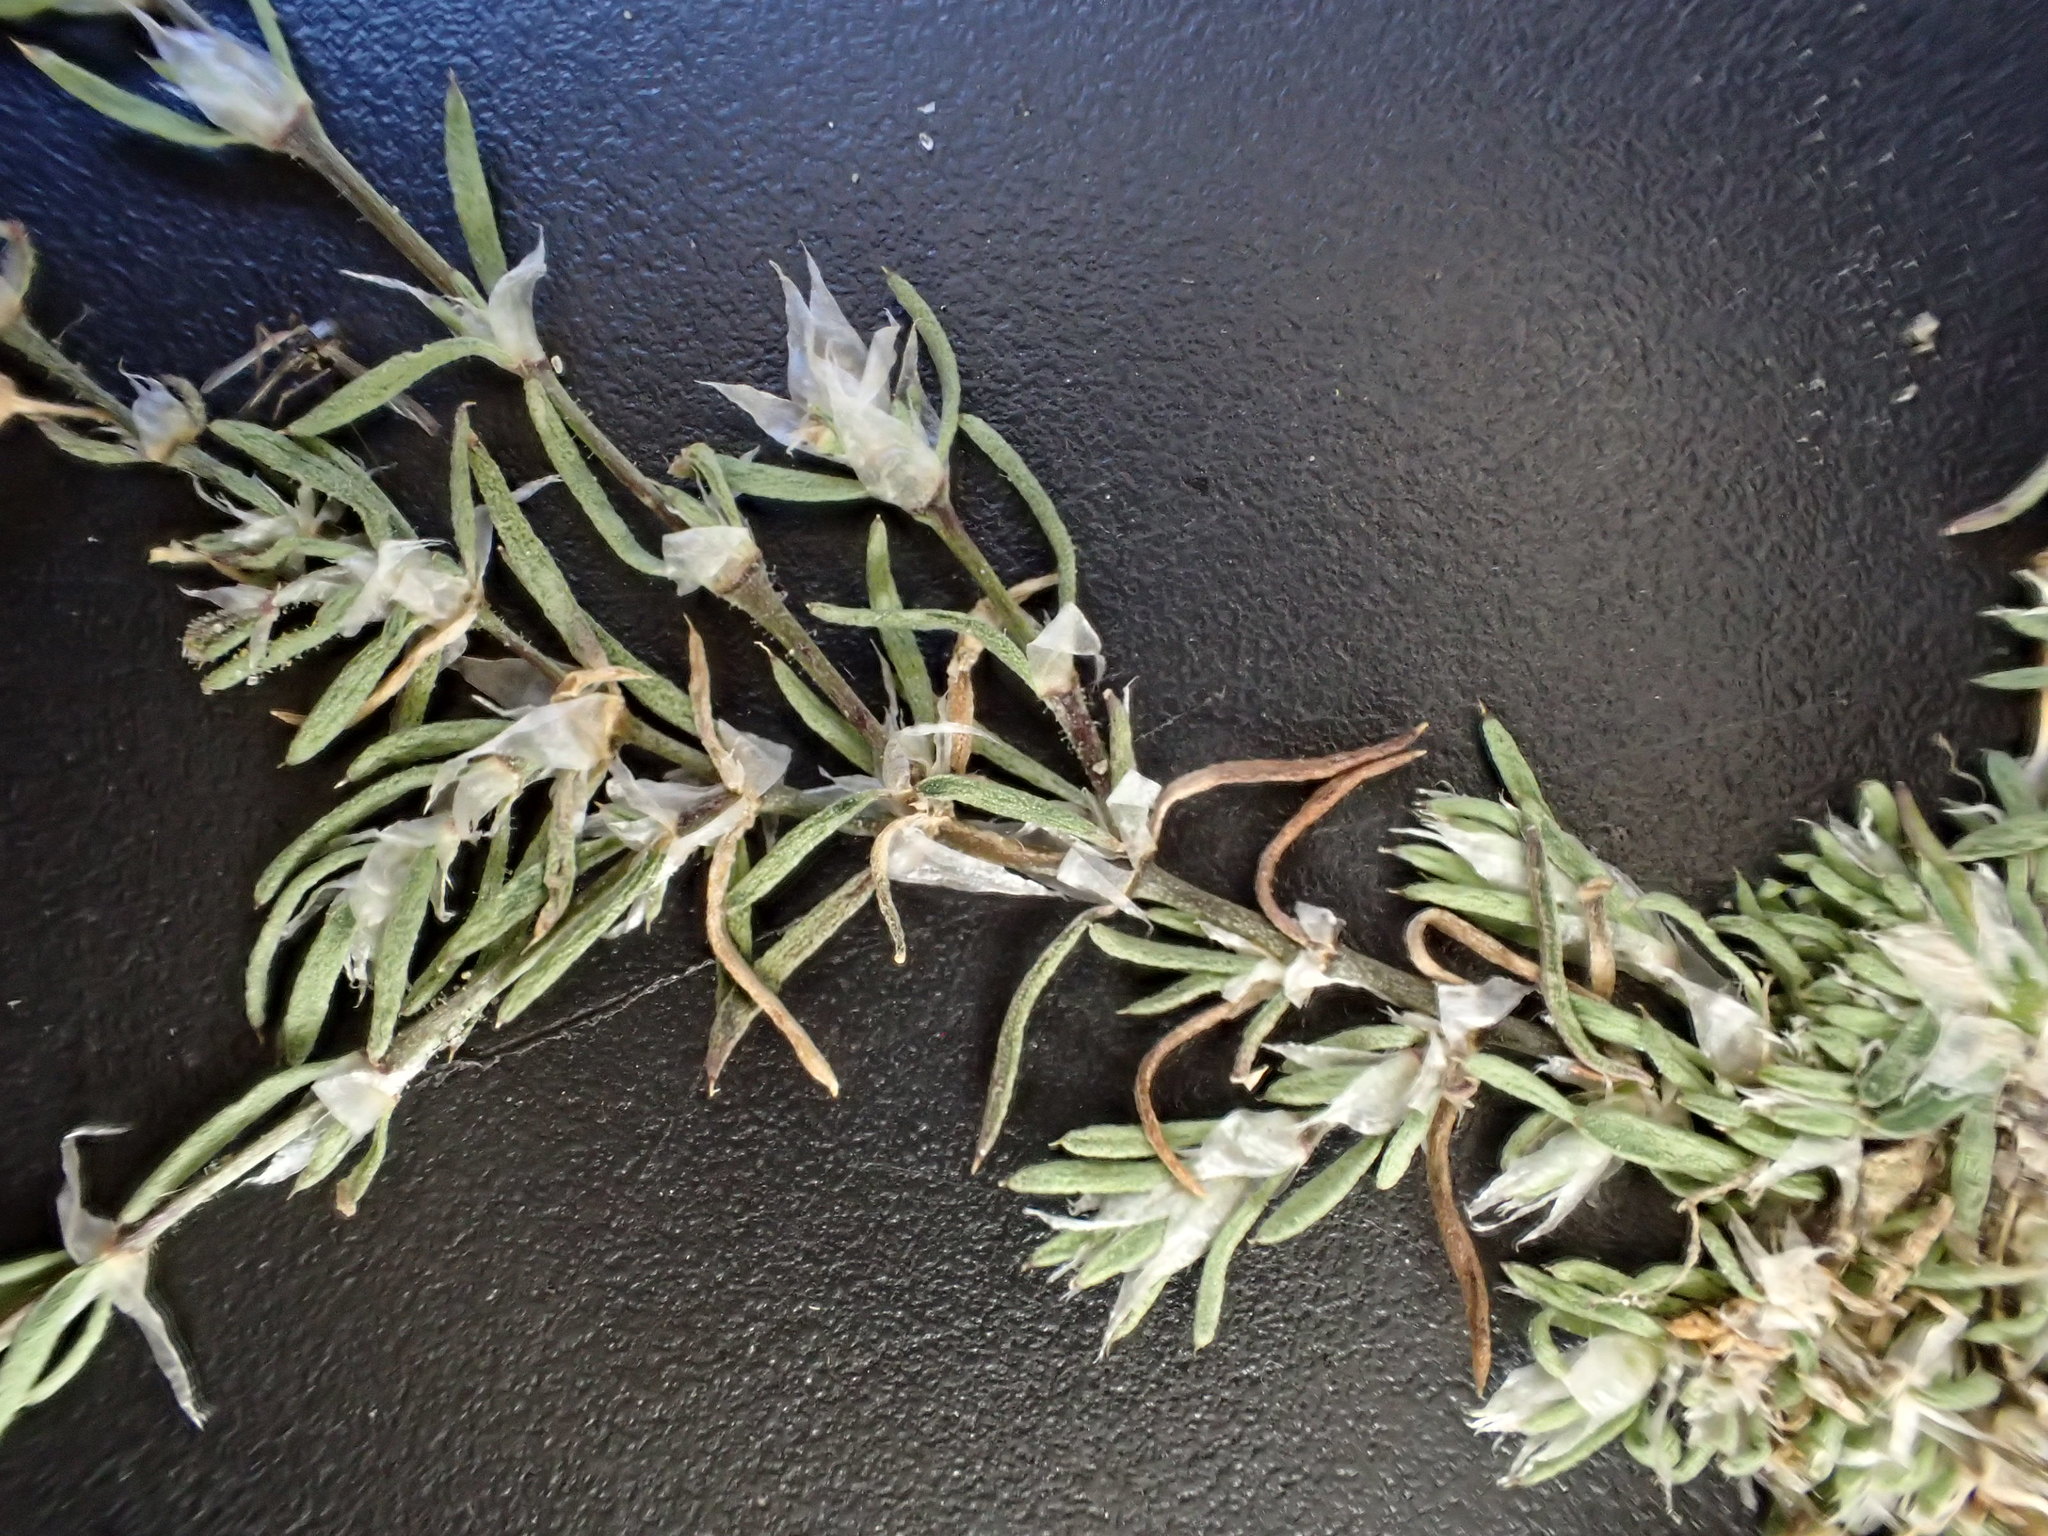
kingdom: Plantae
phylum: Tracheophyta
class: Magnoliopsida
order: Caryophyllales
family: Caryophyllaceae
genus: Spergularia
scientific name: Spergularia rubra
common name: Red sand-spurrey
